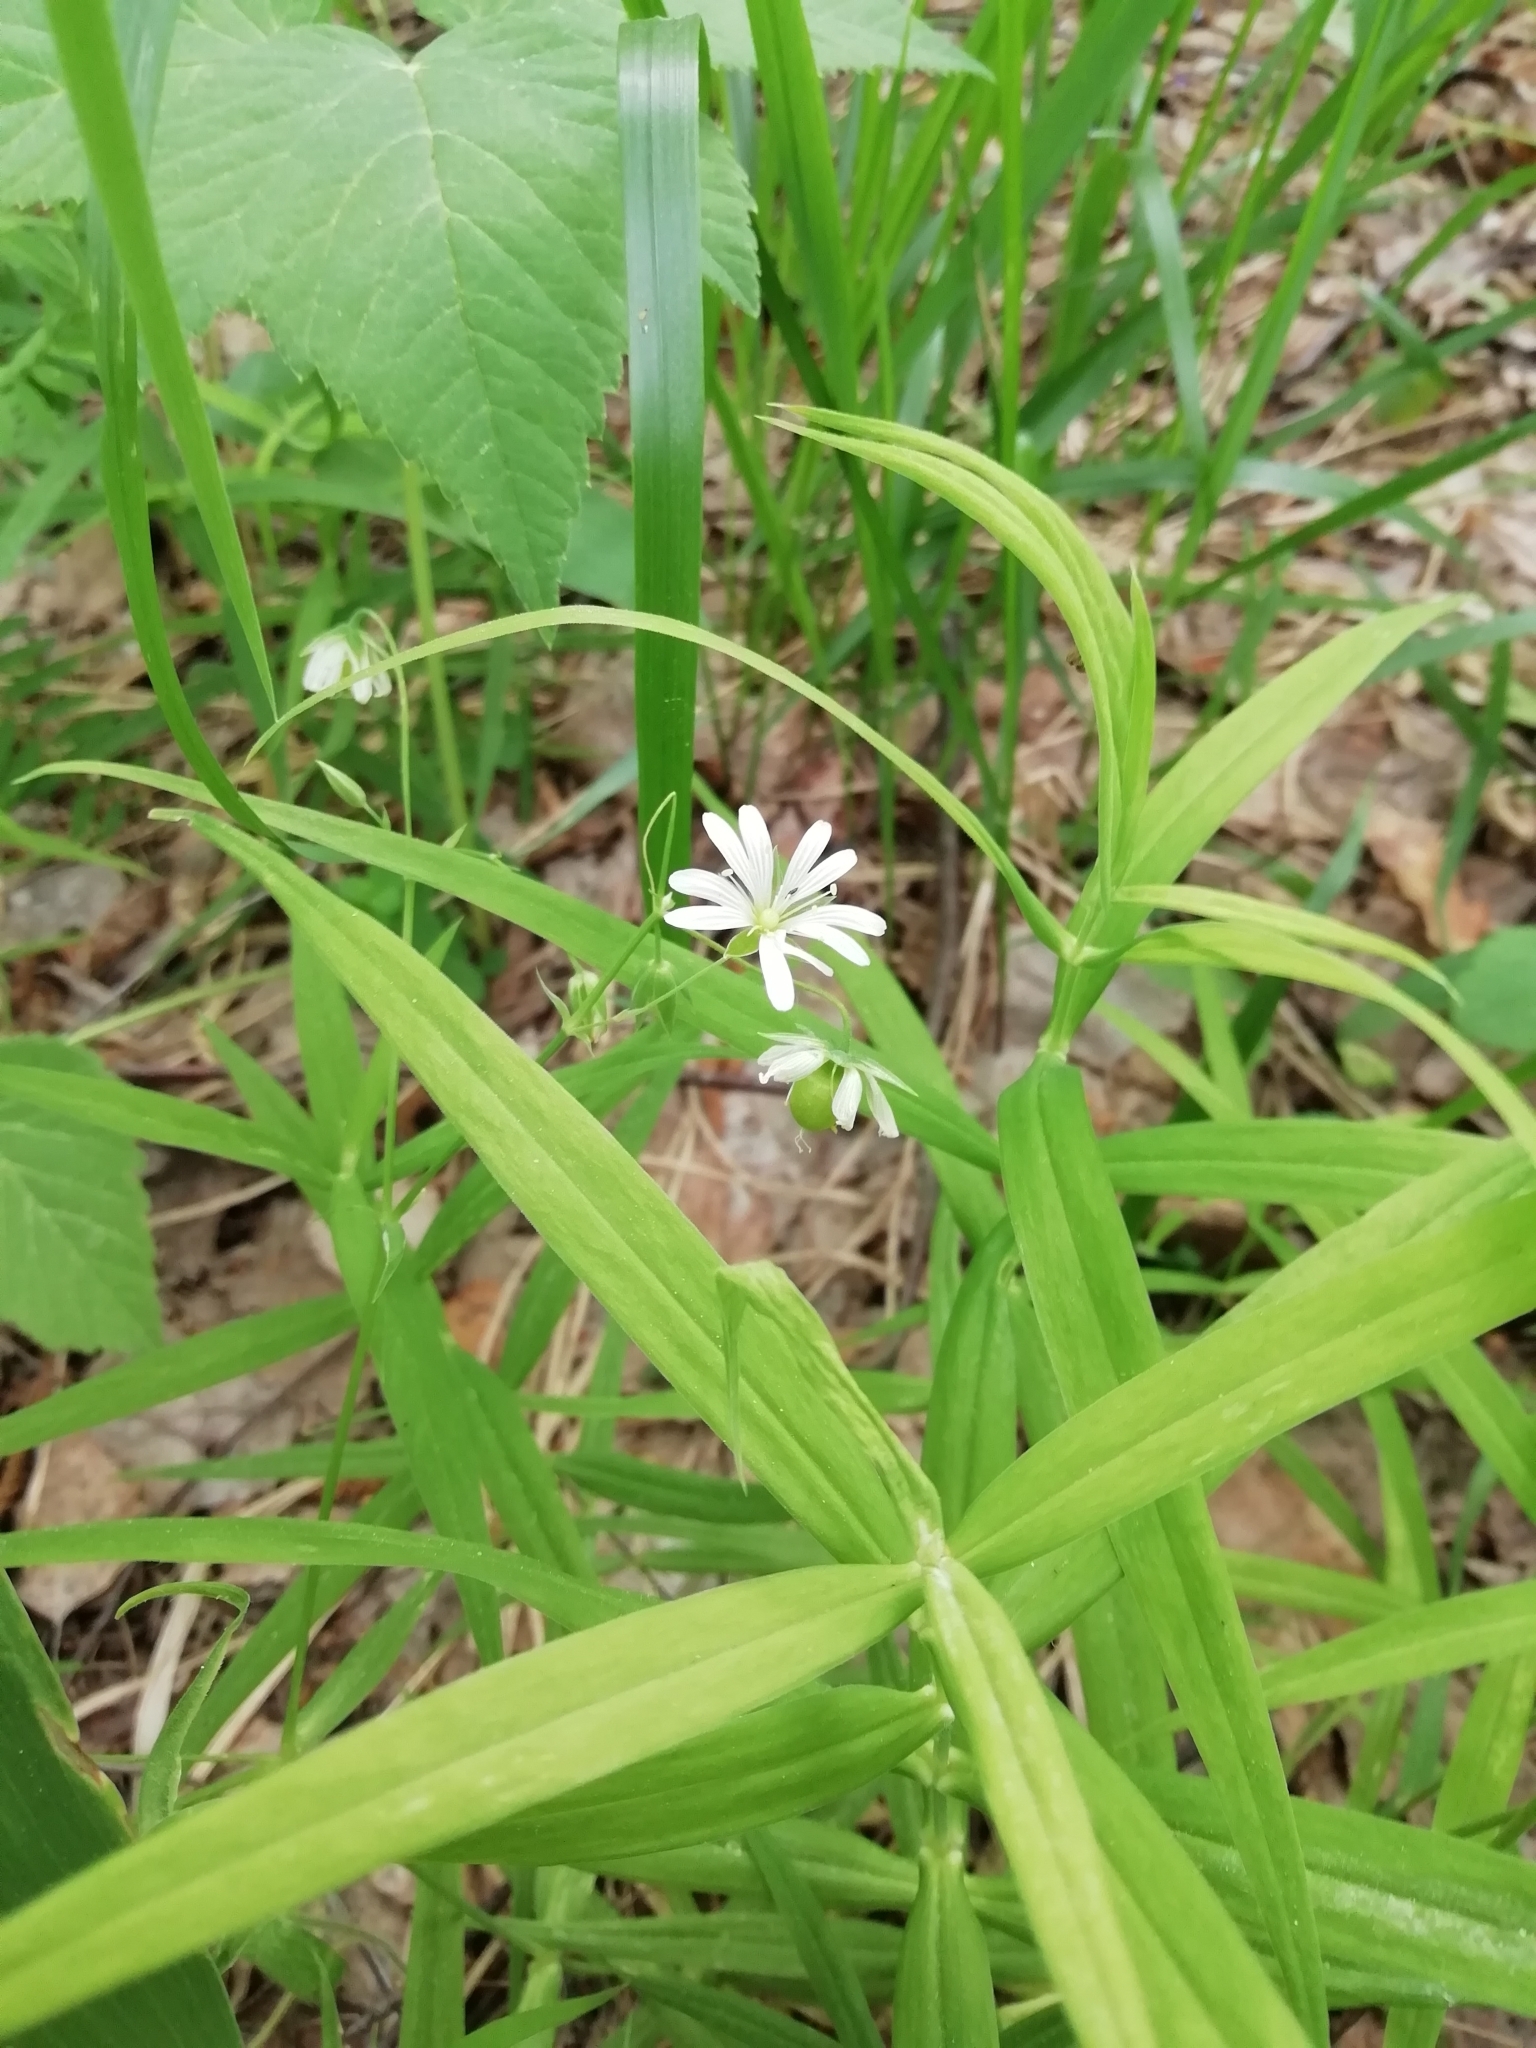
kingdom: Plantae
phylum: Tracheophyta
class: Magnoliopsida
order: Caryophyllales
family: Caryophyllaceae
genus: Rabelera
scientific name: Rabelera holostea
